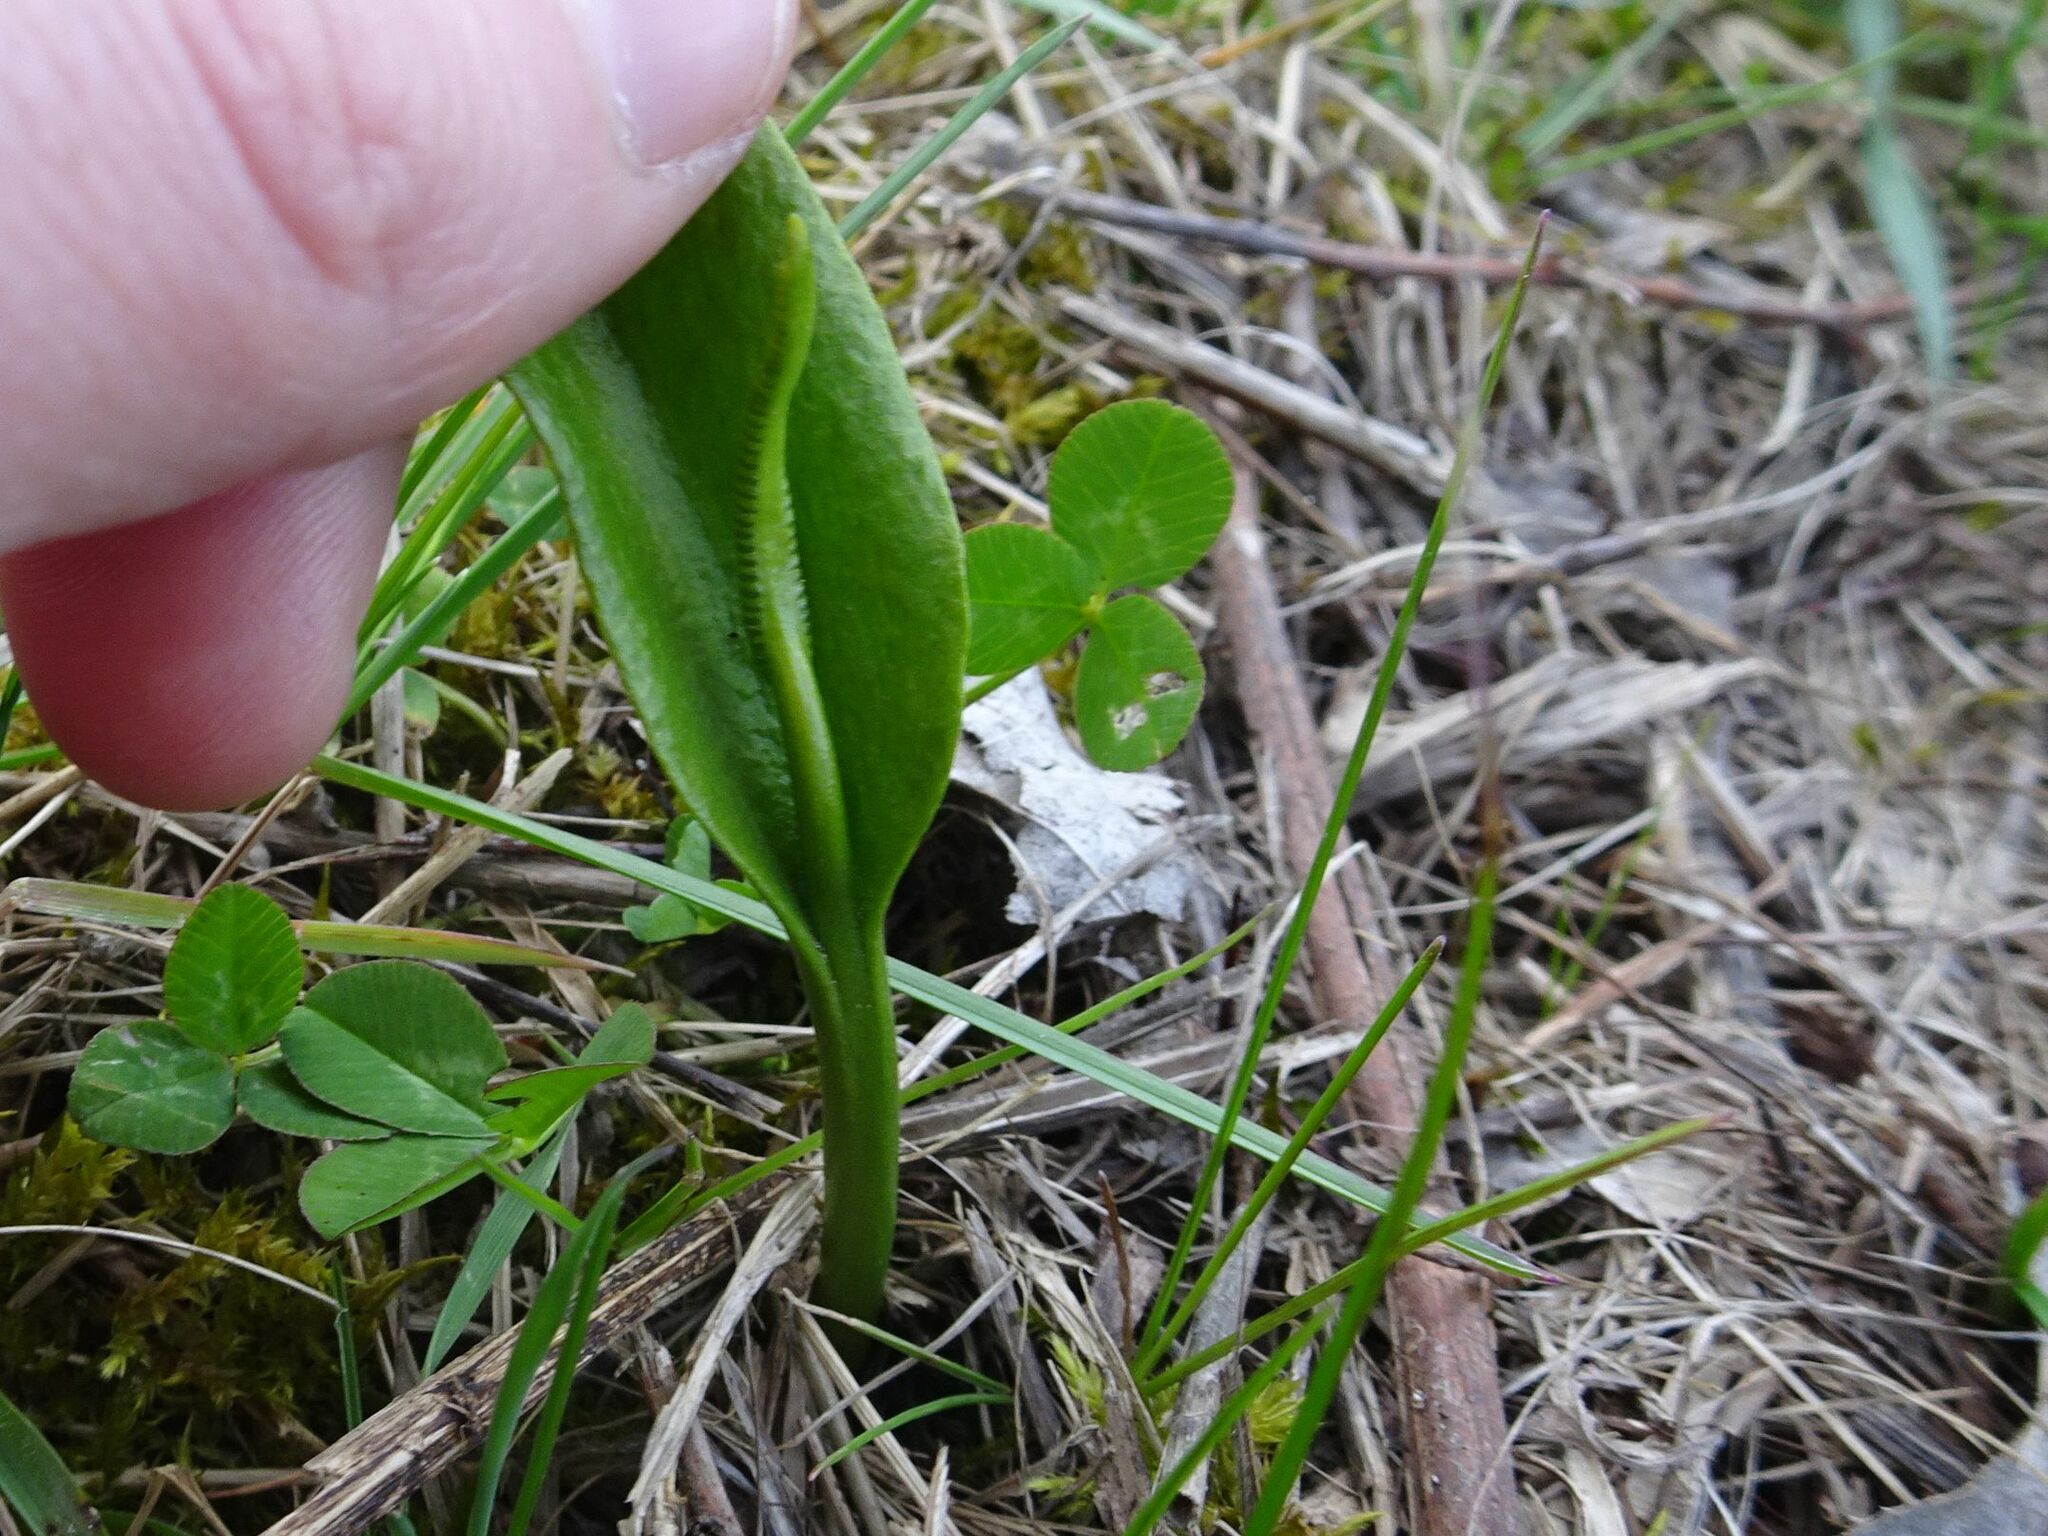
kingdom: Plantae
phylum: Tracheophyta
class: Polypodiopsida
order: Ophioglossales
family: Ophioglossaceae
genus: Ophioglossum
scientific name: Ophioglossum vulgatum
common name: Adder's-tongue
